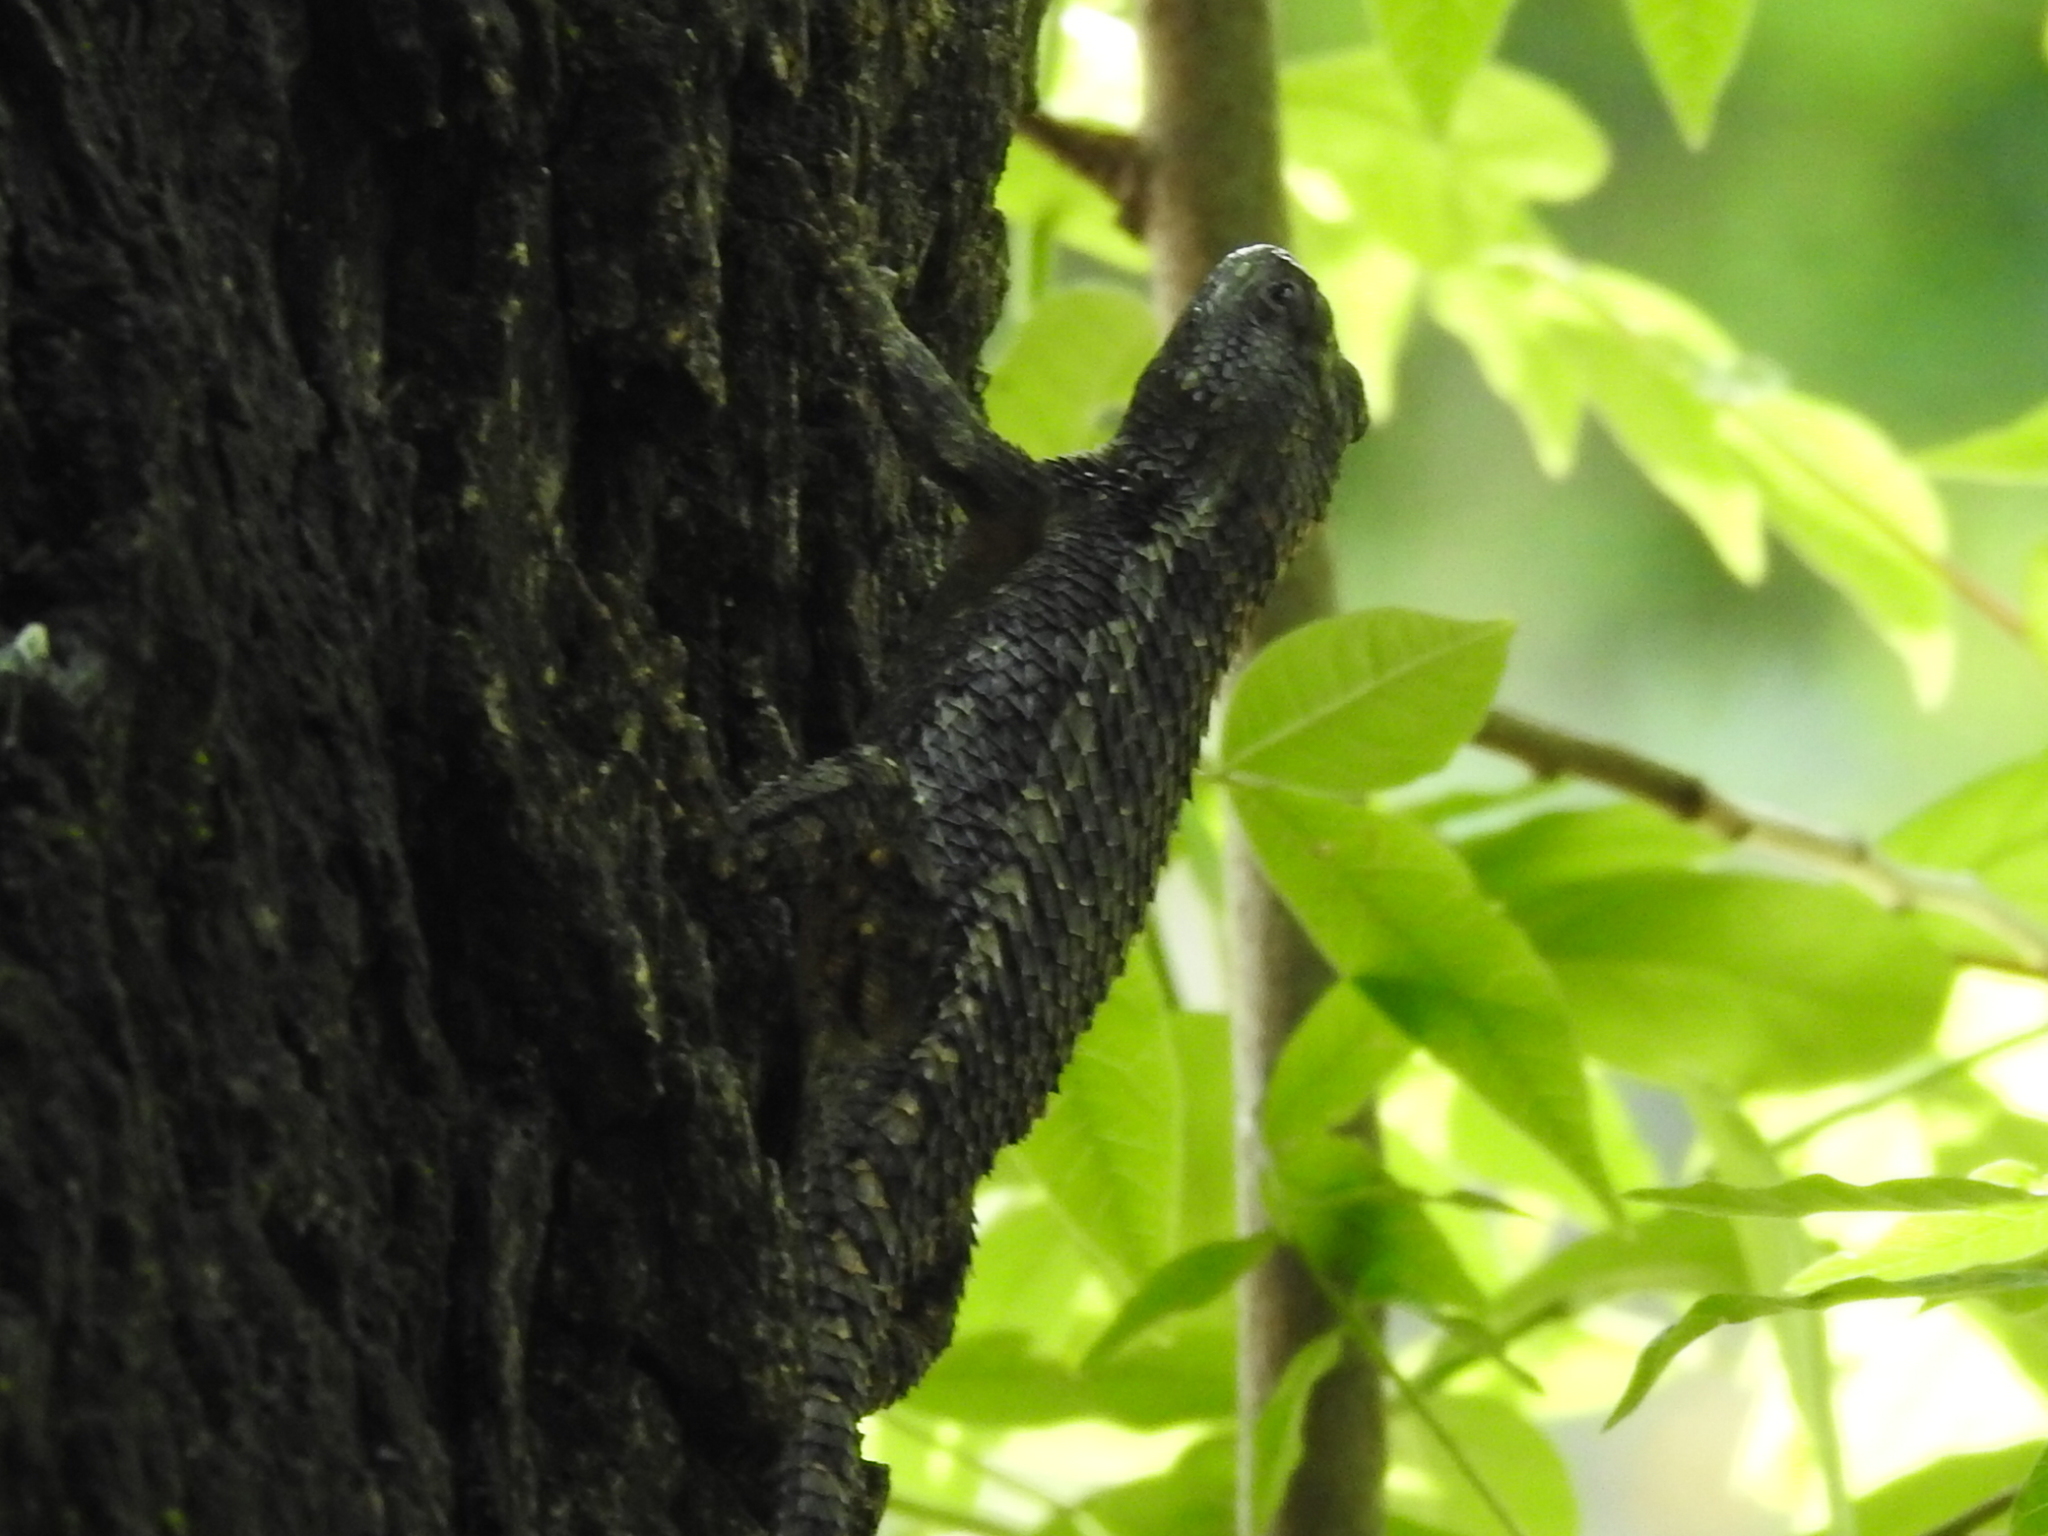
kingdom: Animalia
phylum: Chordata
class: Squamata
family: Phrynosomatidae
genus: Sceloporus
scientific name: Sceloporus olivaceus
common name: Texas spiny lizard
